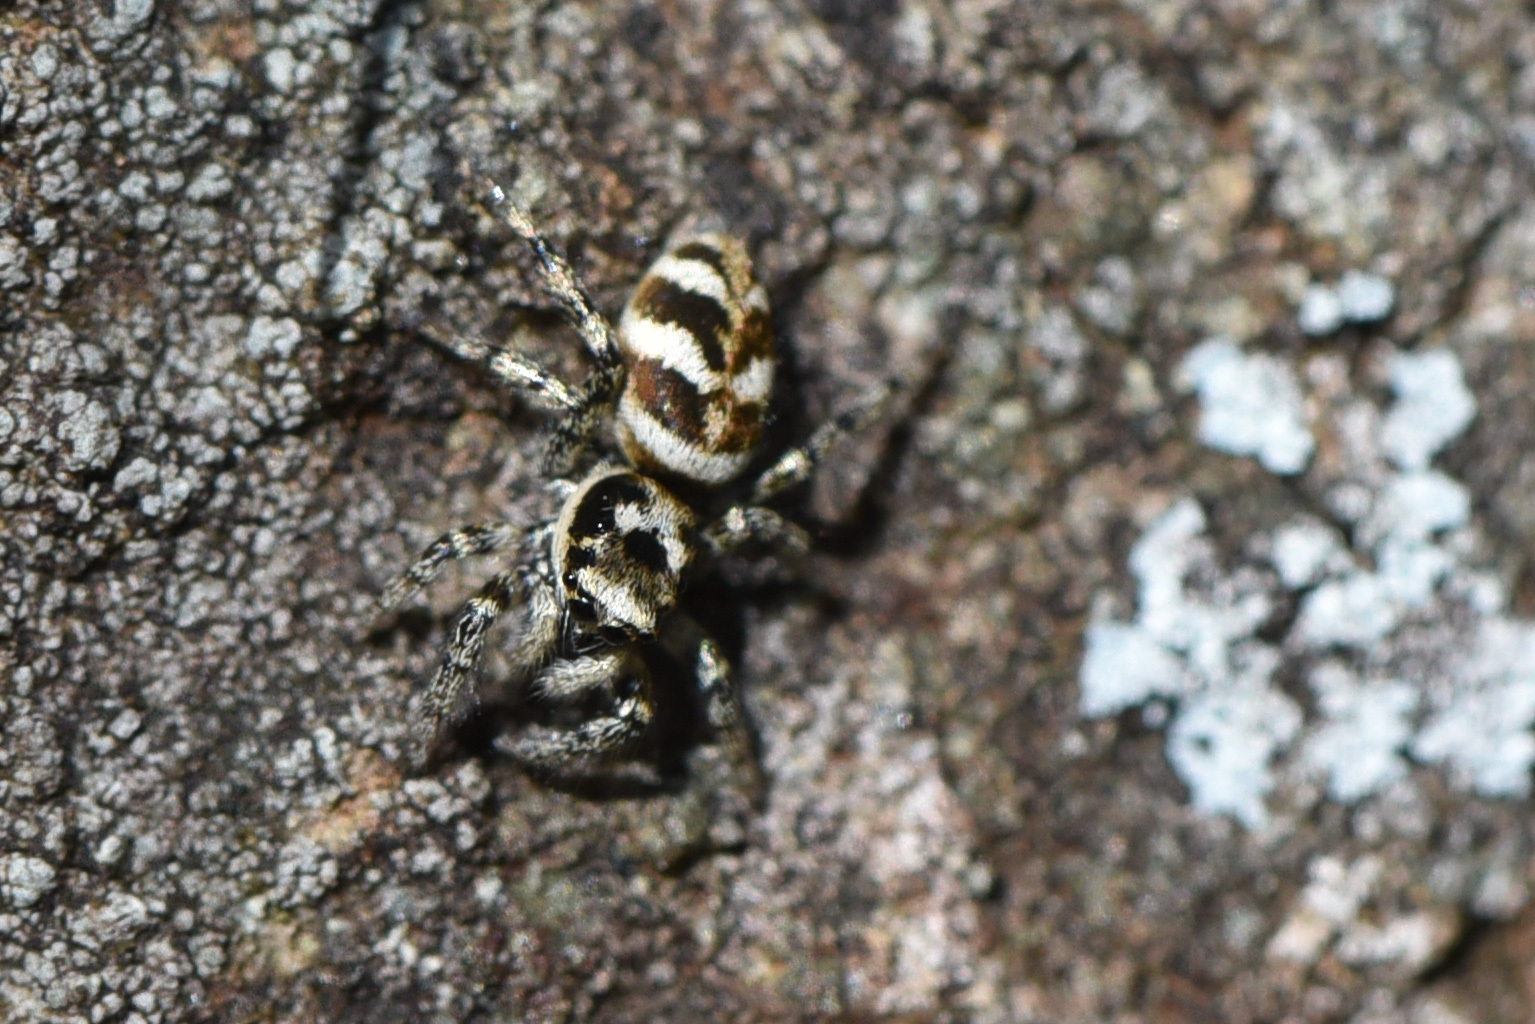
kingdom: Animalia
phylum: Arthropoda
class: Arachnida
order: Araneae
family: Salticidae
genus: Salticus
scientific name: Salticus scenicus
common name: Zebra jumper
